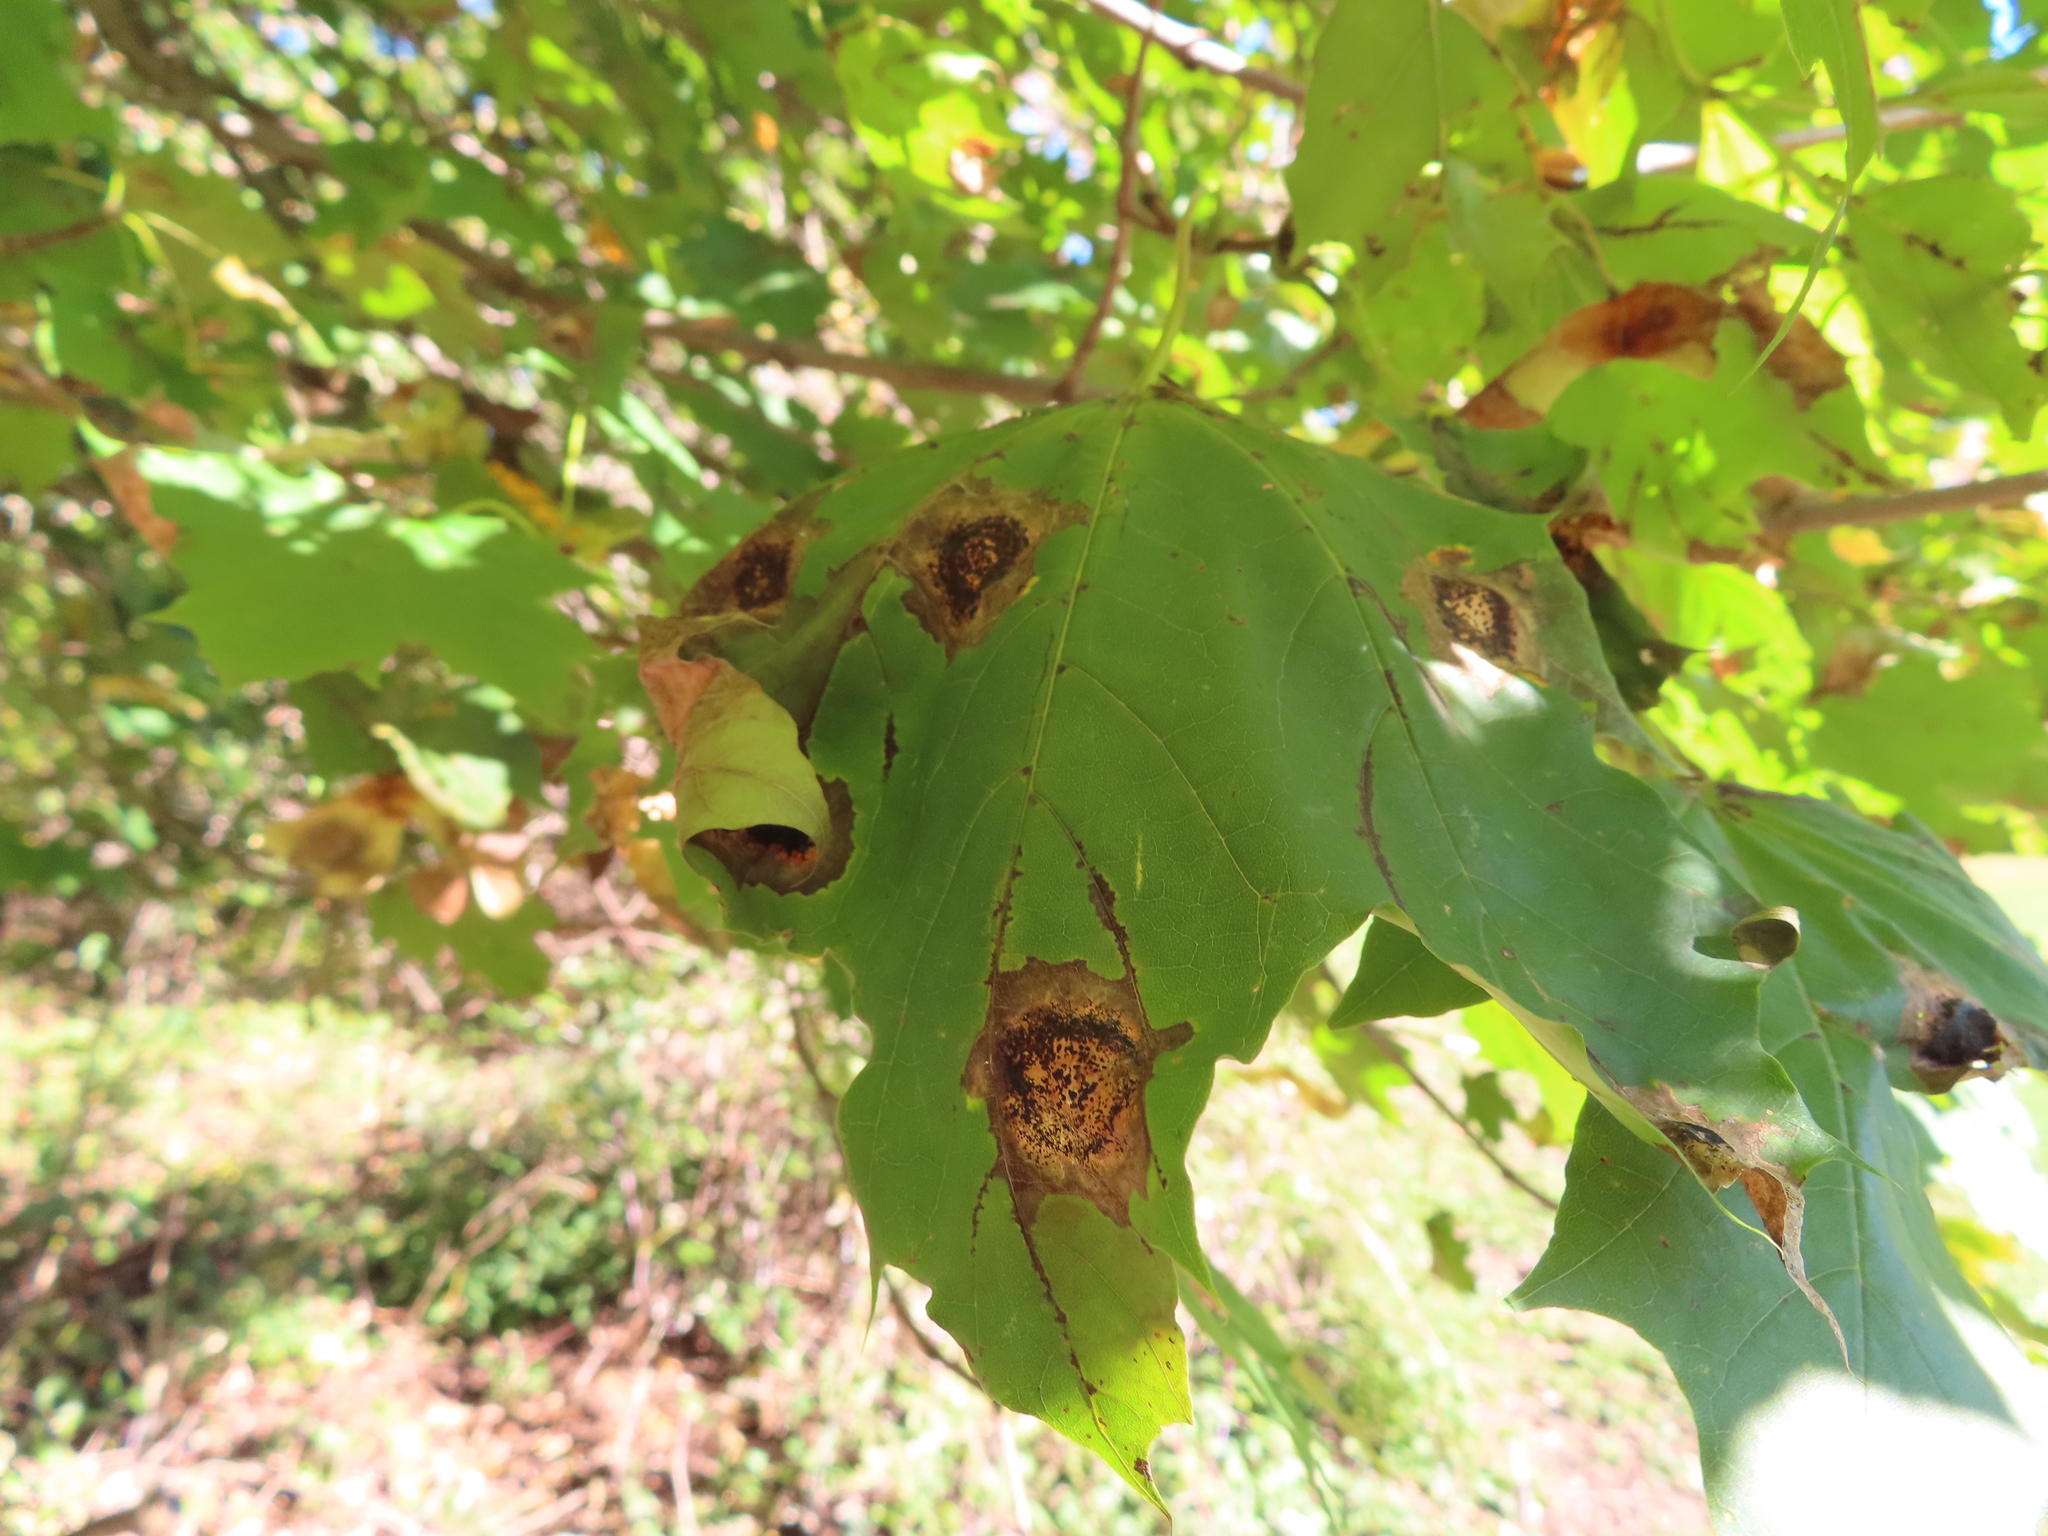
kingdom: Fungi
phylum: Ascomycota
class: Leotiomycetes
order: Rhytismatales
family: Rhytismataceae
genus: Rhytisma
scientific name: Rhytisma acerinum
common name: European tar spot
